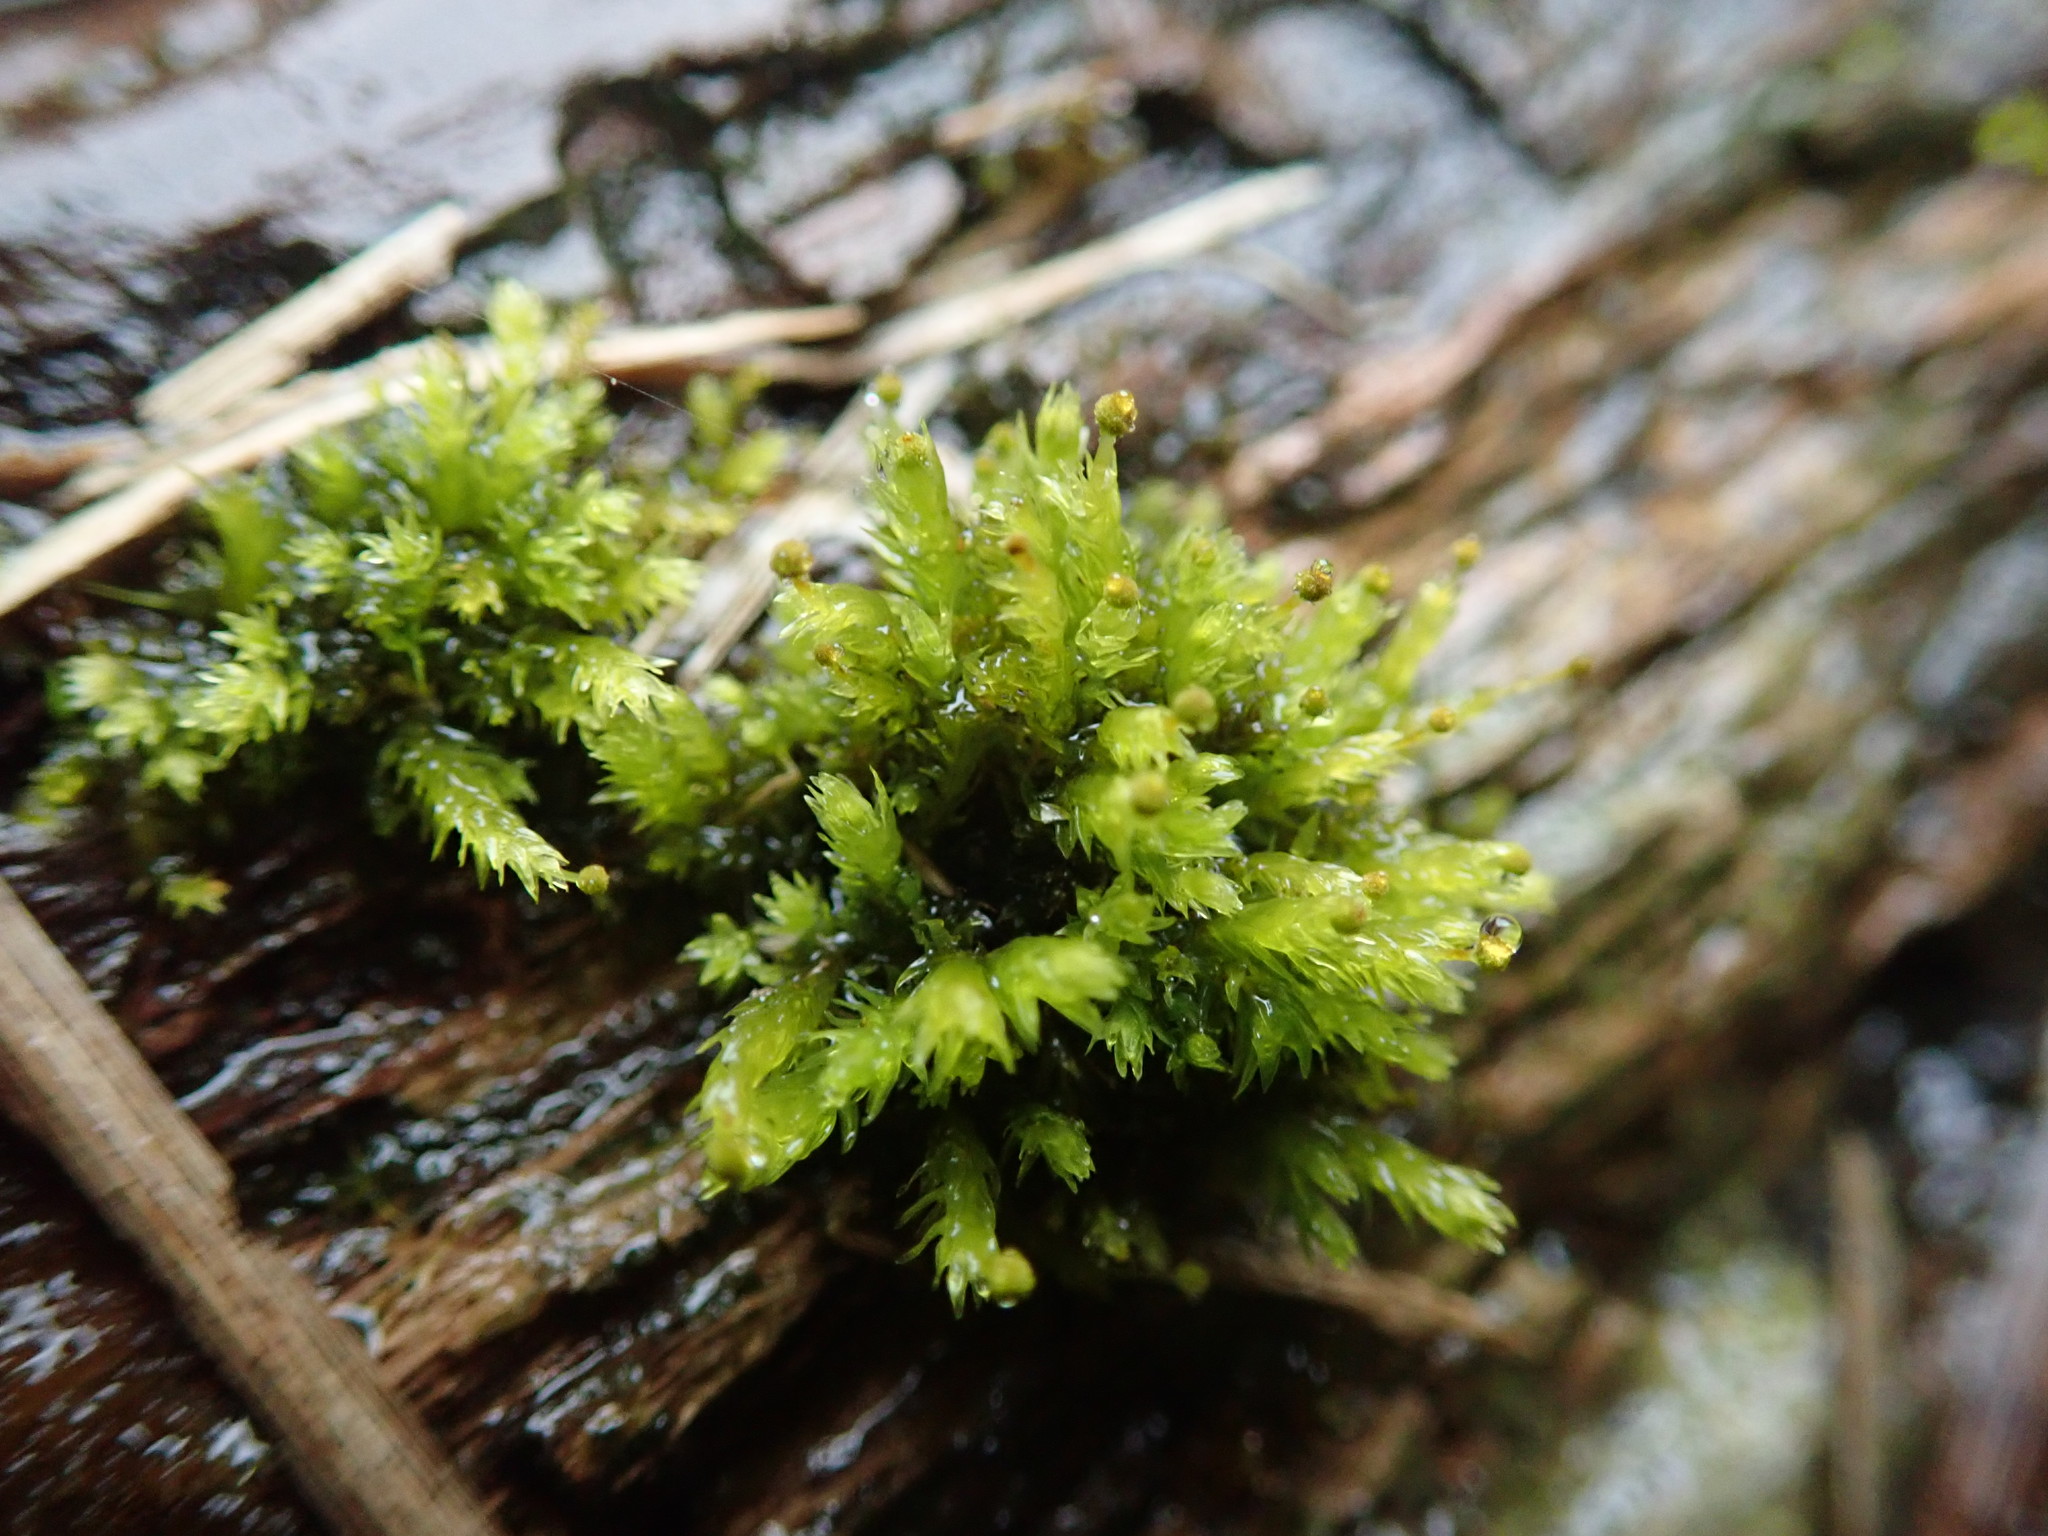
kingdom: Plantae
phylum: Bryophyta
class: Bryopsida
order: Aulacomniales
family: Aulacomniaceae
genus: Aulacomnium
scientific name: Aulacomnium androgynum
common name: Little groove moss
